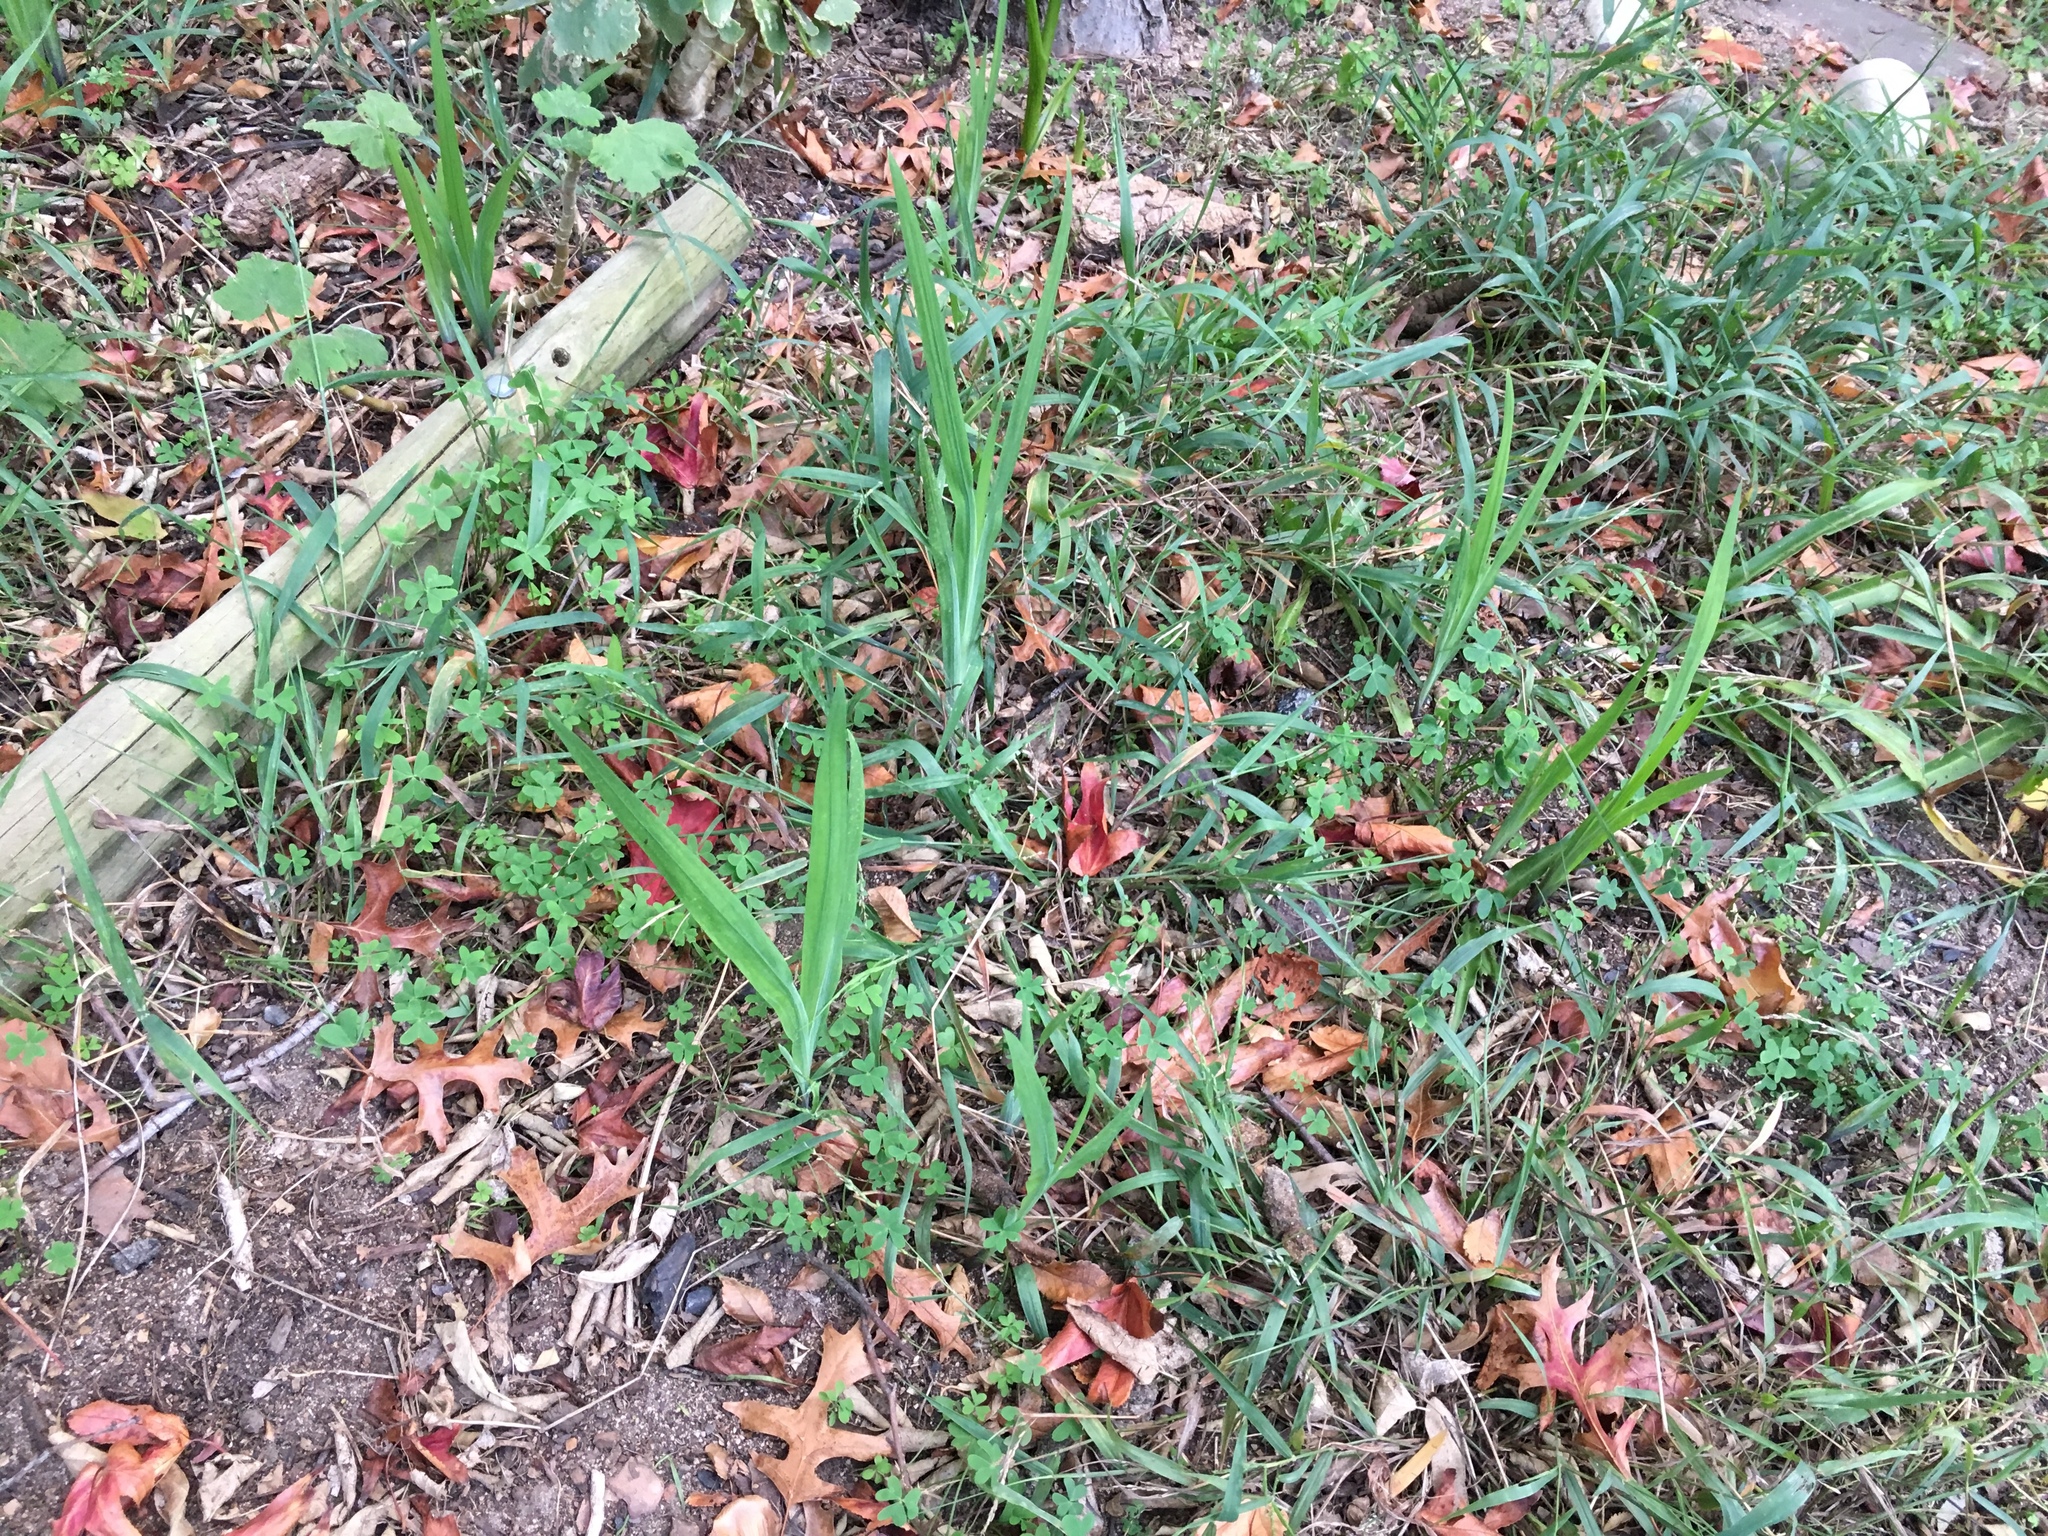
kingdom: Plantae
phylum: Tracheophyta
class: Liliopsida
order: Asparagales
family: Iridaceae
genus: Chasmanthe
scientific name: Chasmanthe aethiopica
